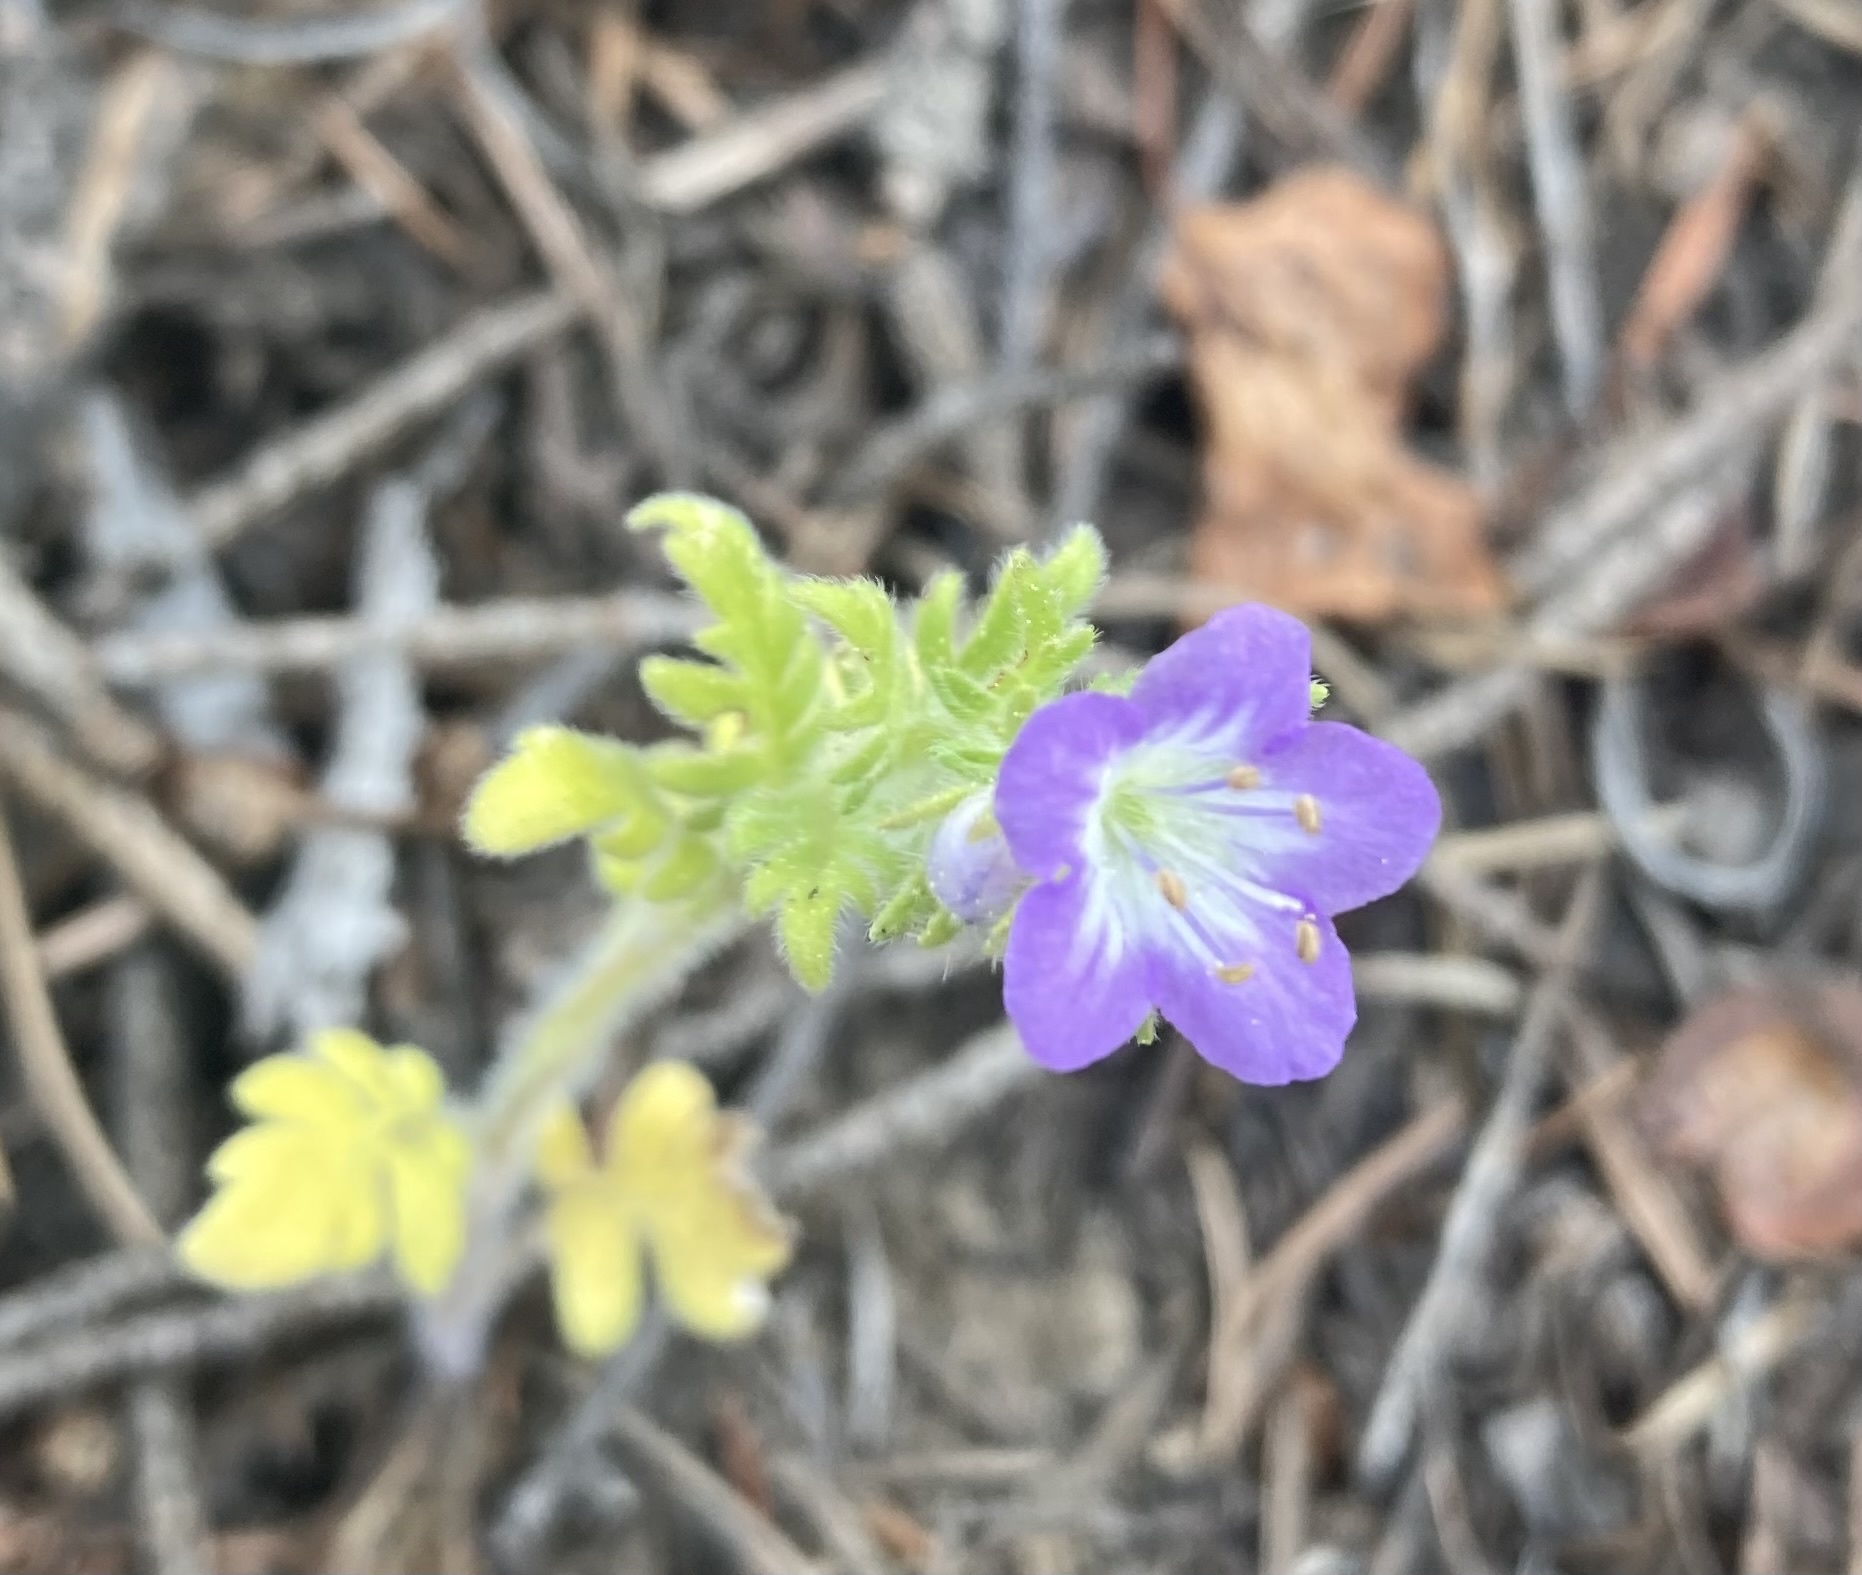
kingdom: Plantae
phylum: Tracheophyta
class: Magnoliopsida
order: Boraginales
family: Hydrophyllaceae
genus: Phacelia
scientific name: Phacelia franklinii
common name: Franklin's phacelia
